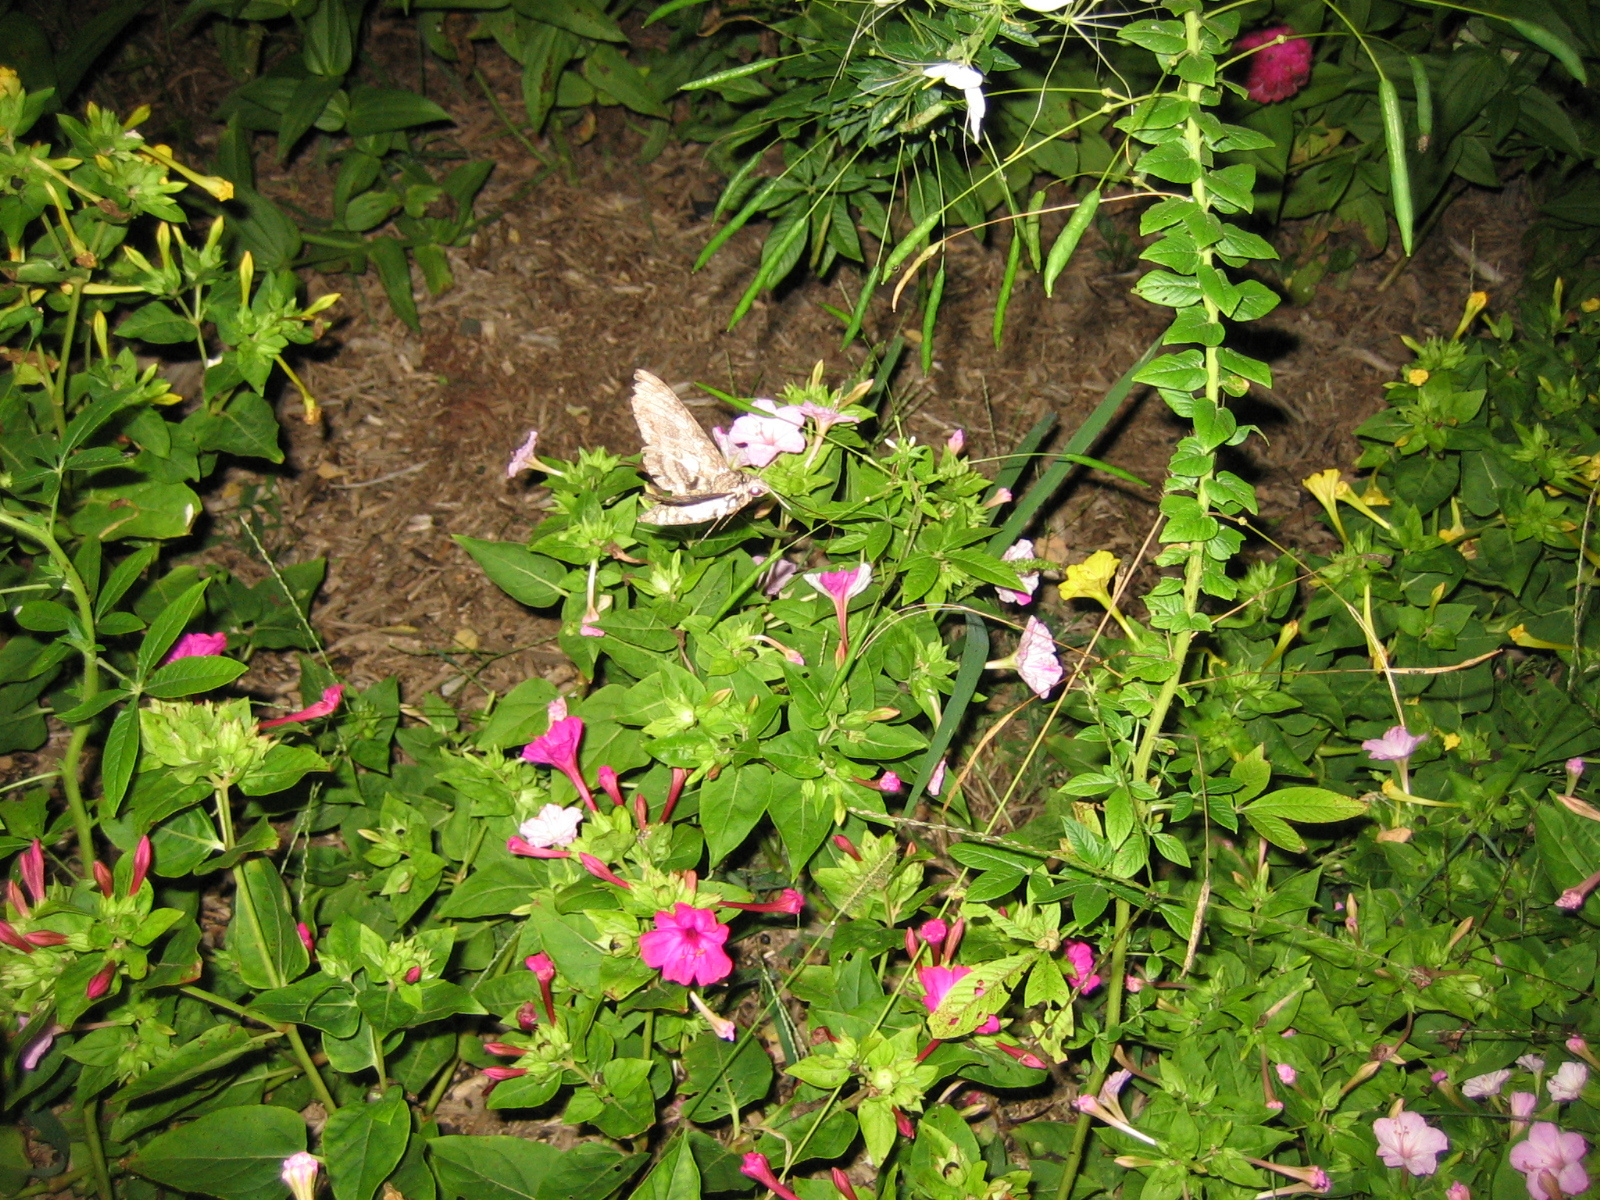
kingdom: Animalia
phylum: Arthropoda
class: Insecta
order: Lepidoptera
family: Sphingidae
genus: Manduca
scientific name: Manduca sexta
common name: Carolina sphinx
